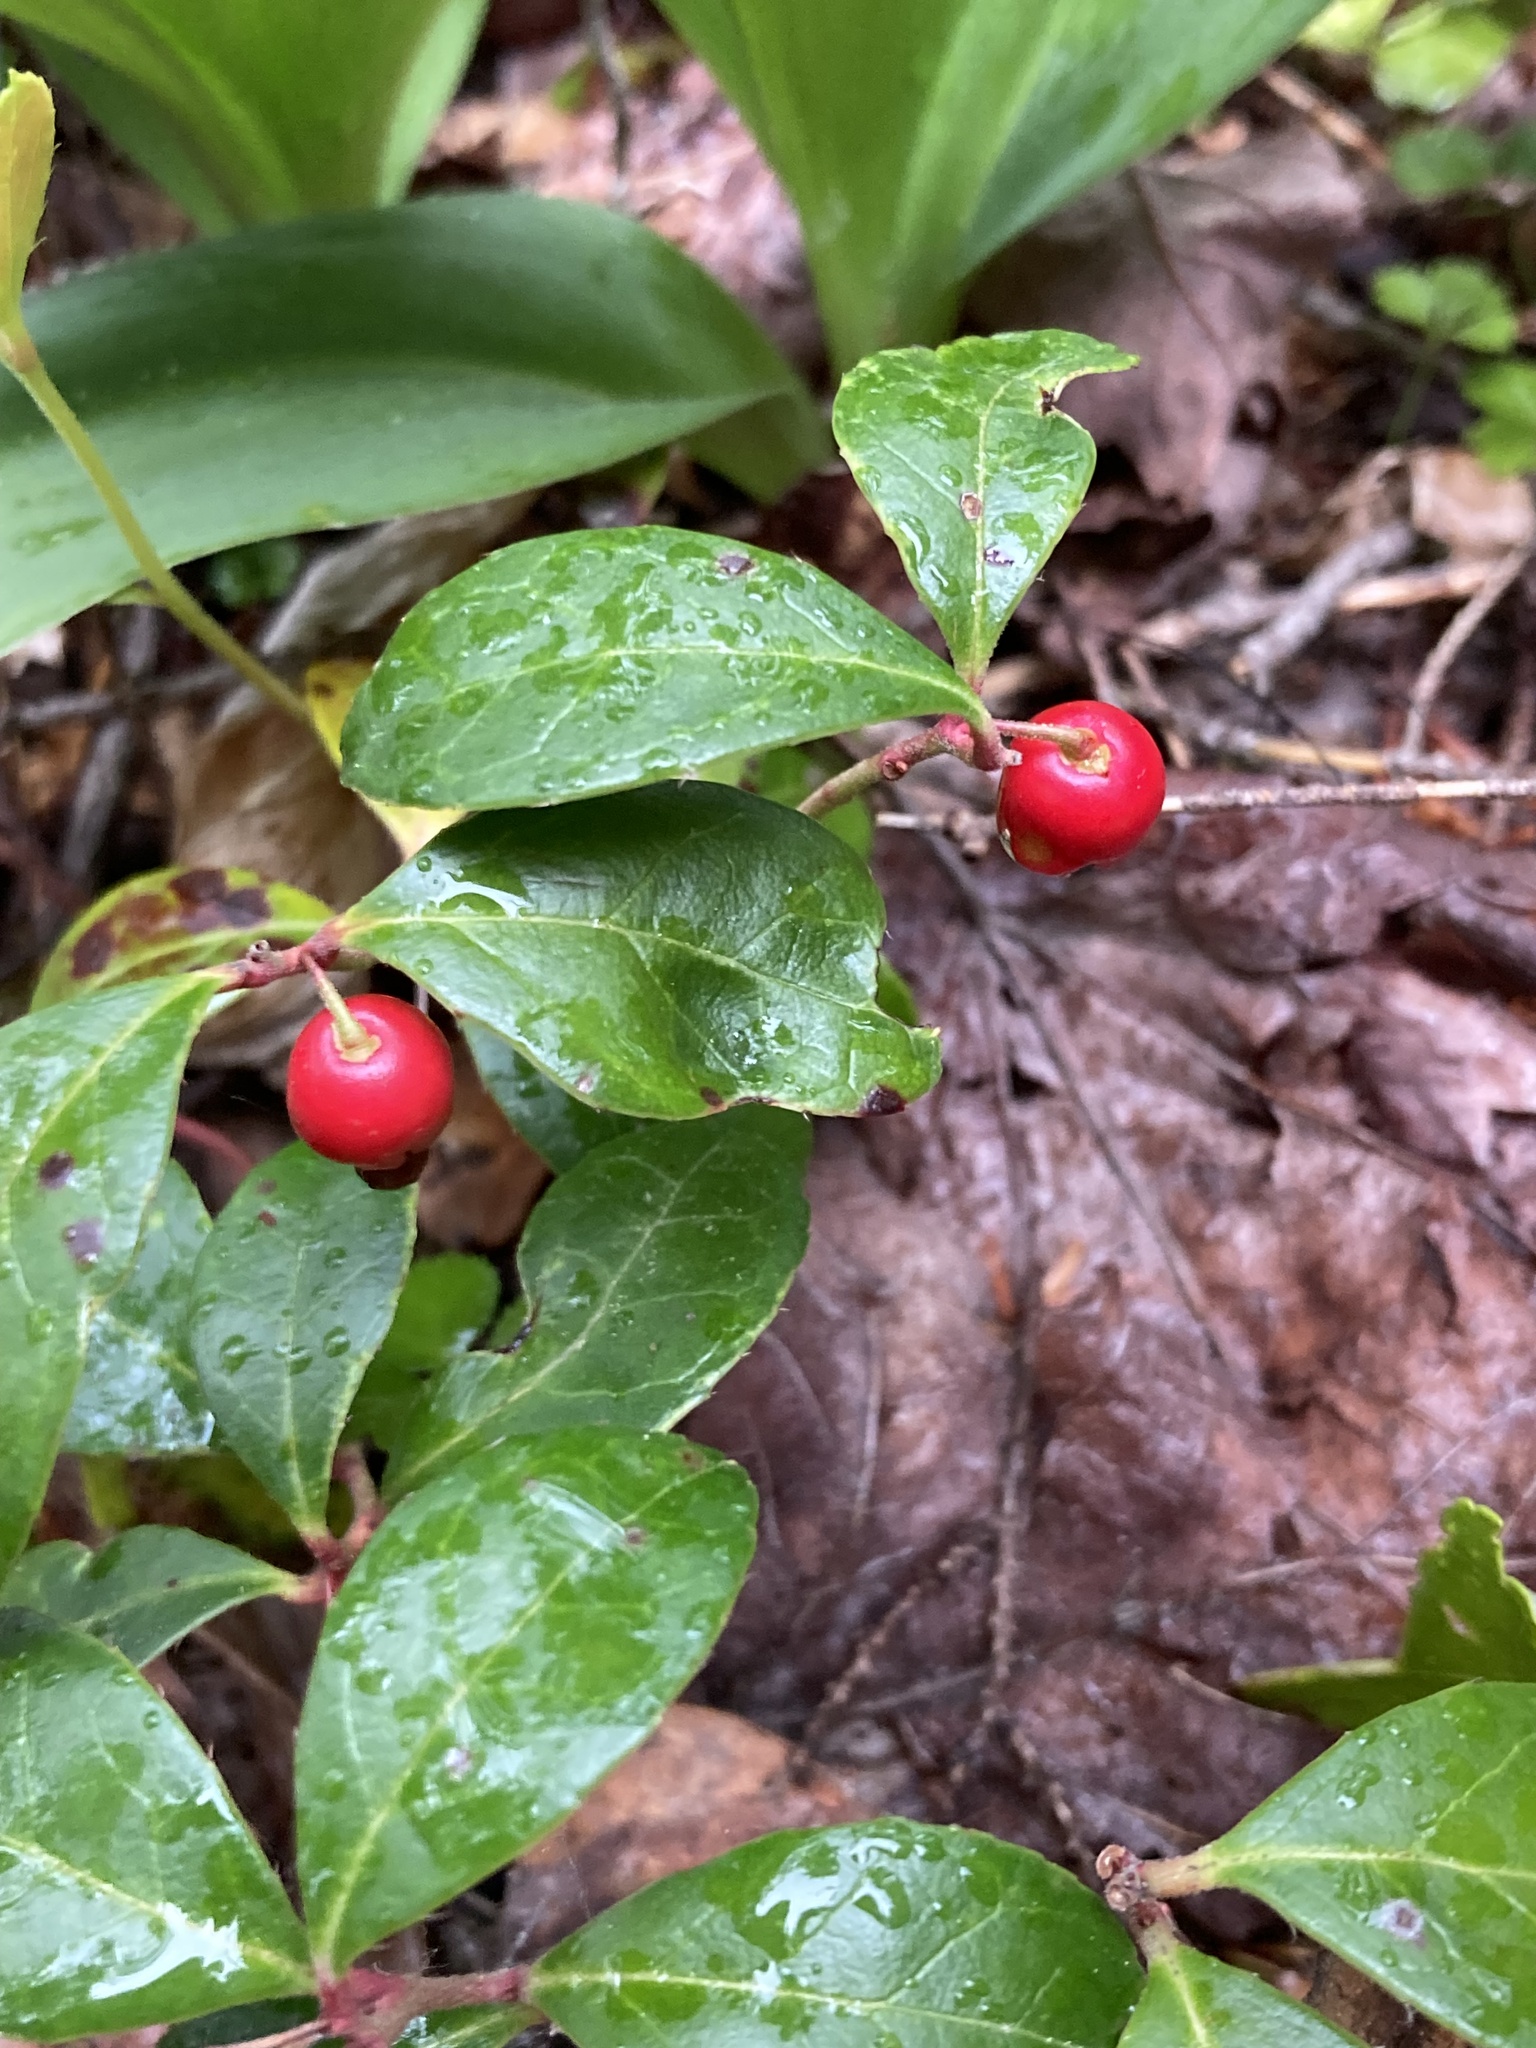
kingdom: Plantae
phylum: Tracheophyta
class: Magnoliopsida
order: Ericales
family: Ericaceae
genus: Gaultheria
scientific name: Gaultheria procumbens
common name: Checkerberry
